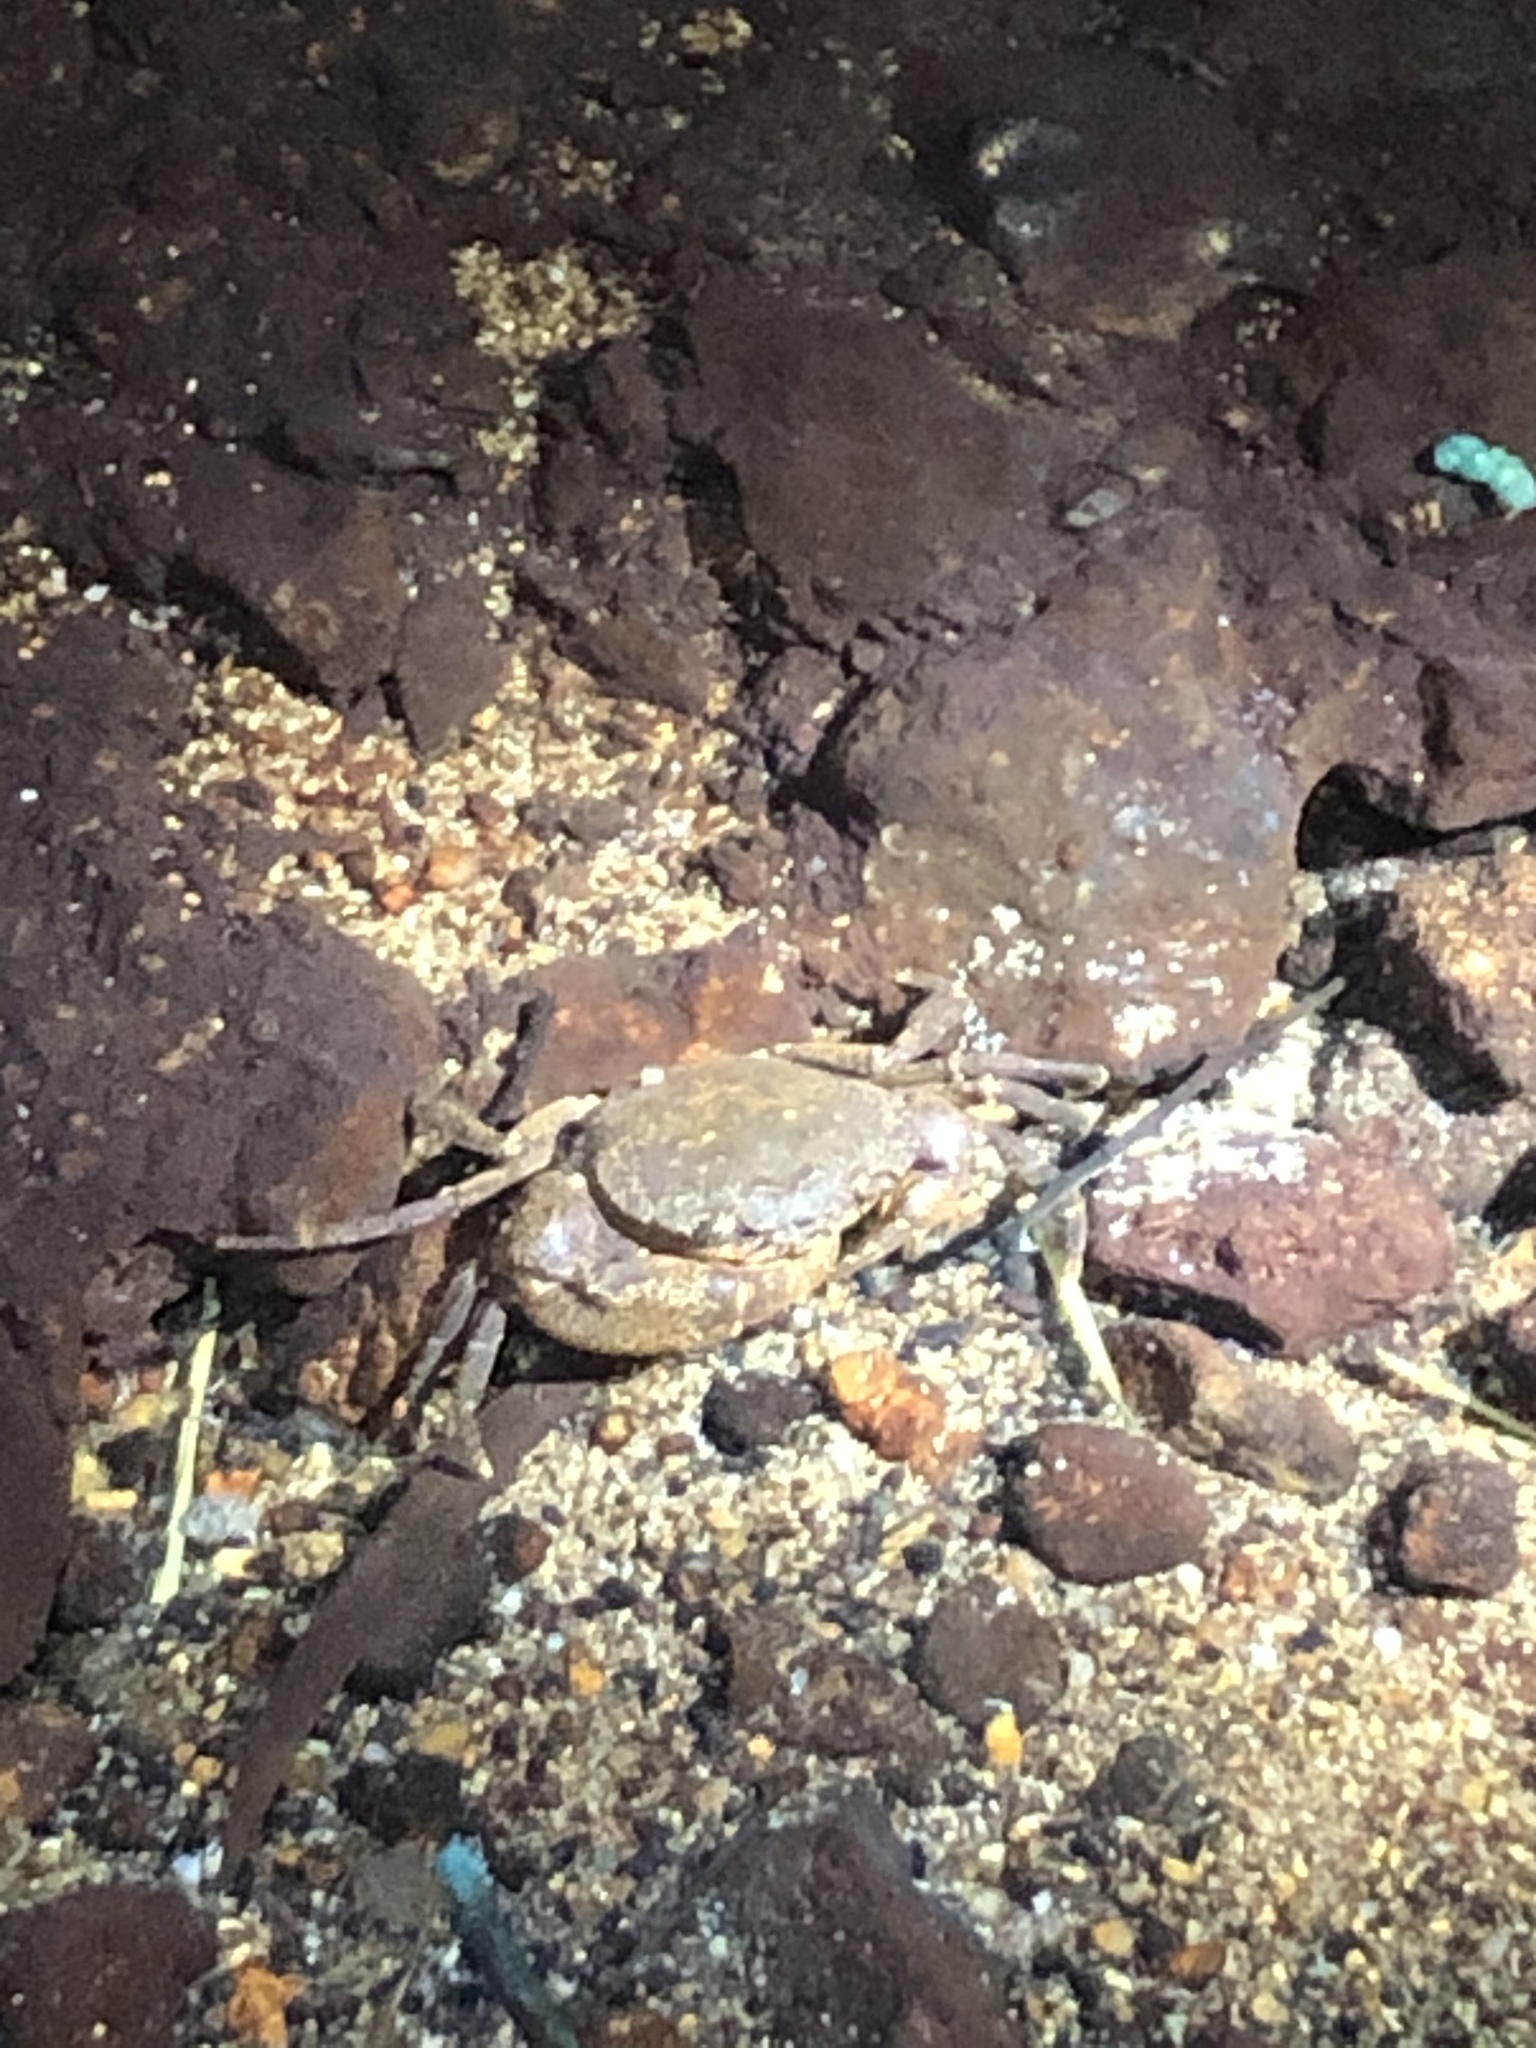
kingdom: Animalia
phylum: Arthropoda
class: Malacostraca
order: Decapoda
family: Potamidae
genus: Sinolapotamon
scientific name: Sinolapotamon anacoluthon
